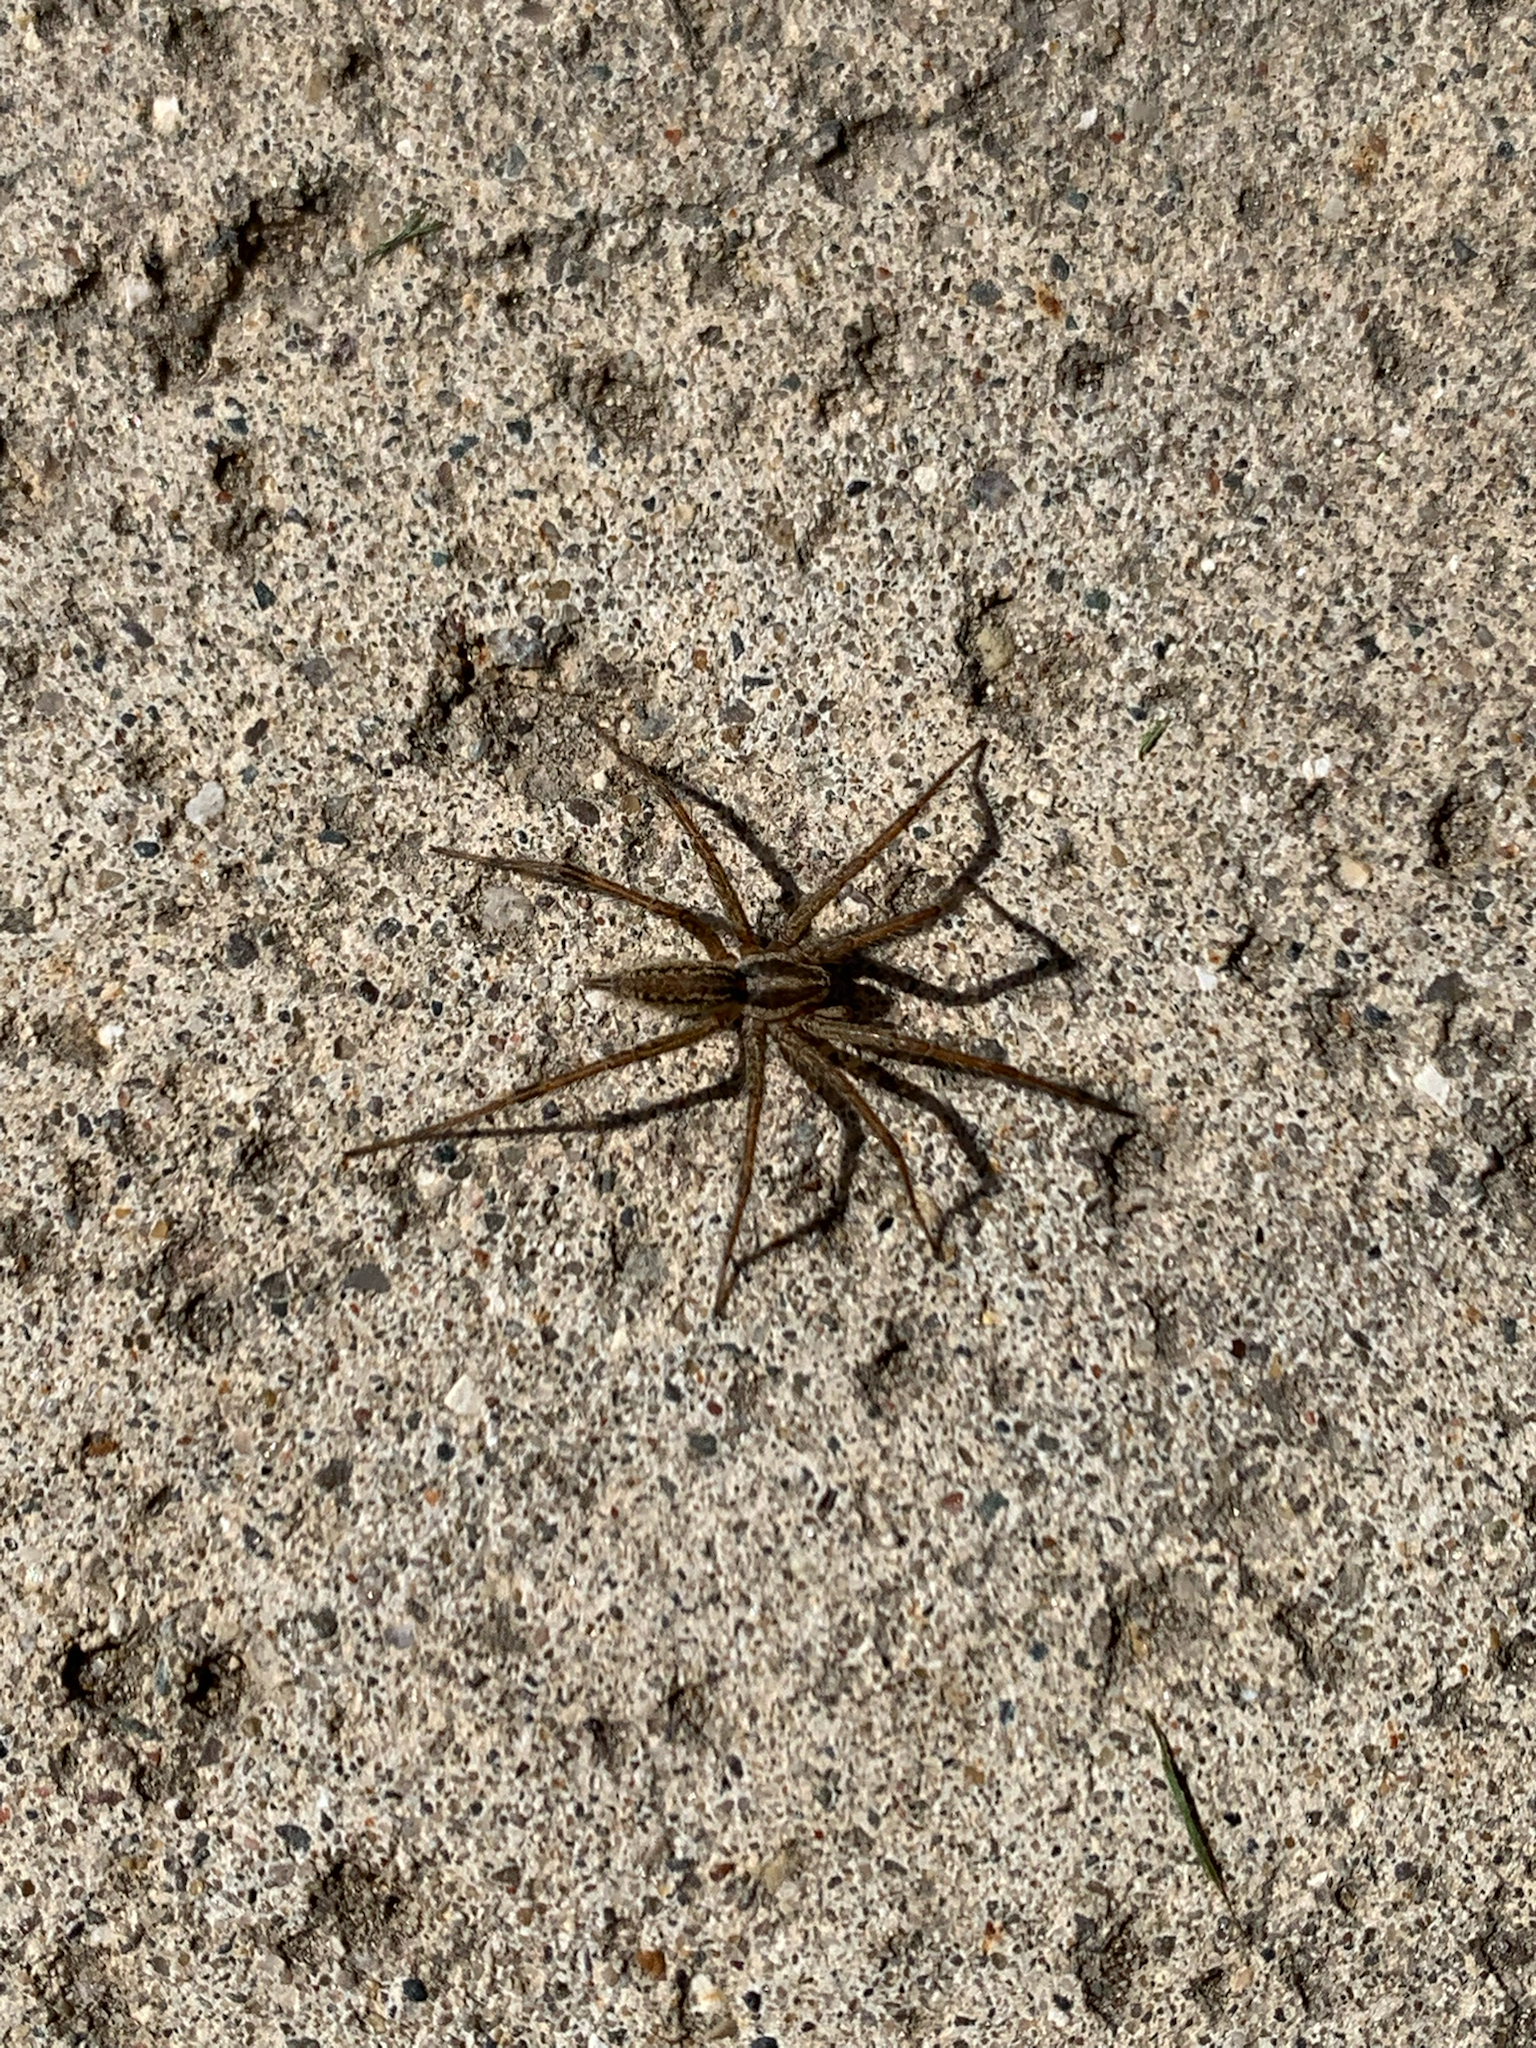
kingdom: Animalia
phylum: Arthropoda
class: Arachnida
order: Araneae
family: Agelenidae
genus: Agelenopsis
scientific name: Agelenopsis
